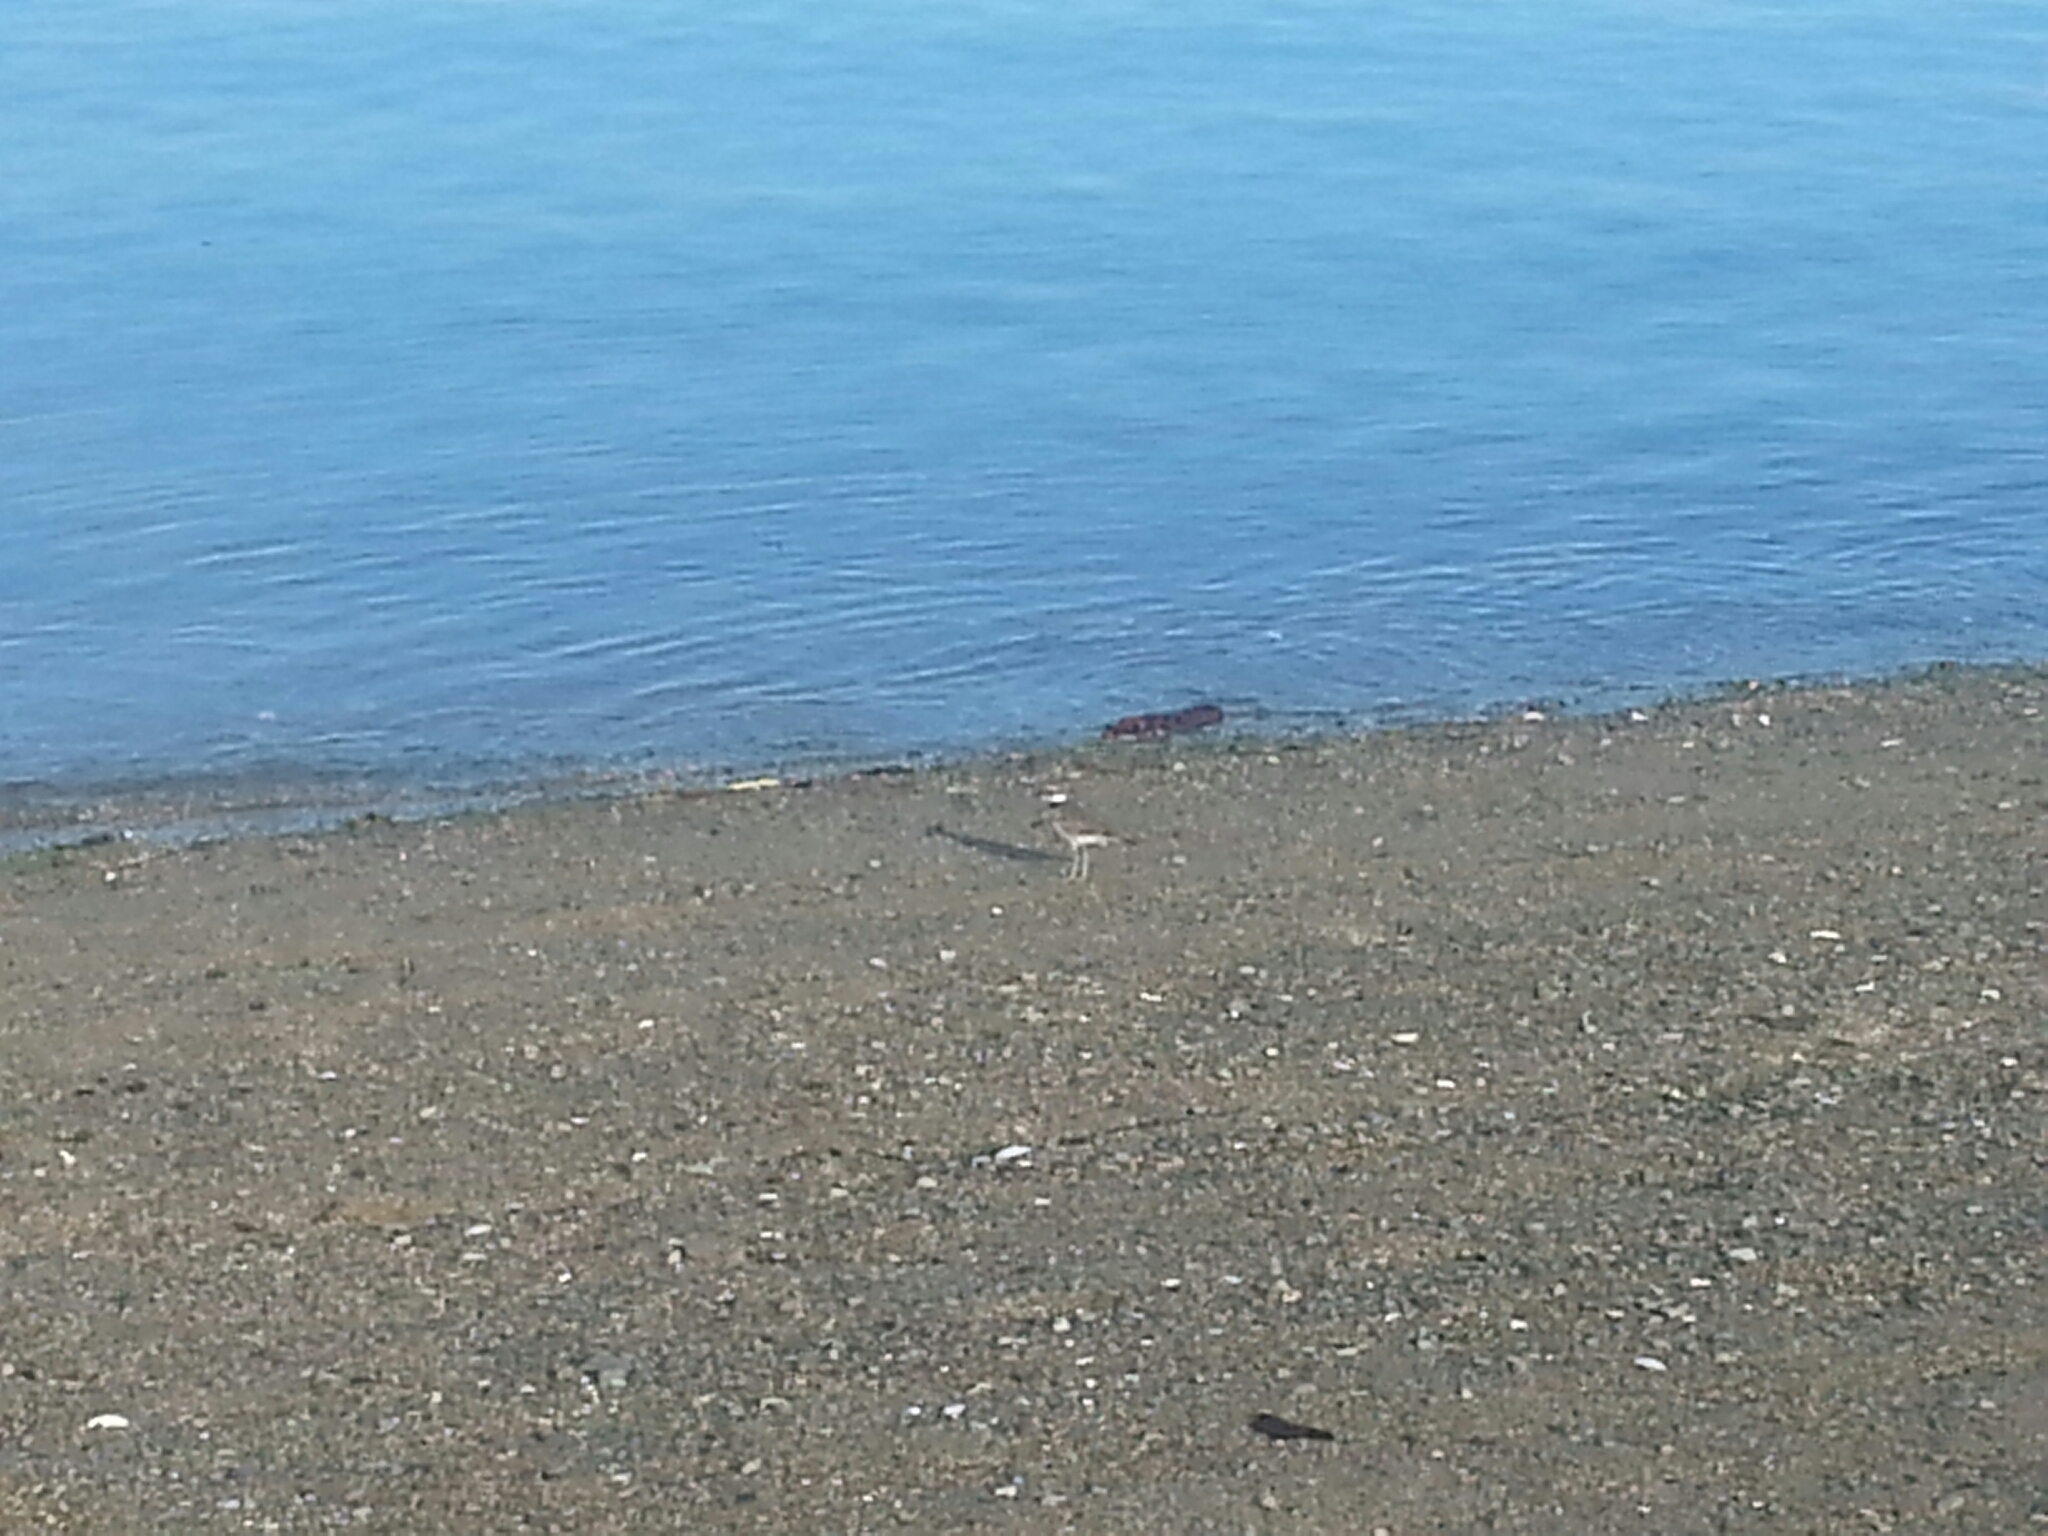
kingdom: Animalia
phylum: Chordata
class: Aves
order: Charadriiformes
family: Charadriidae
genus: Charadrius
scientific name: Charadrius vociferus
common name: Killdeer
